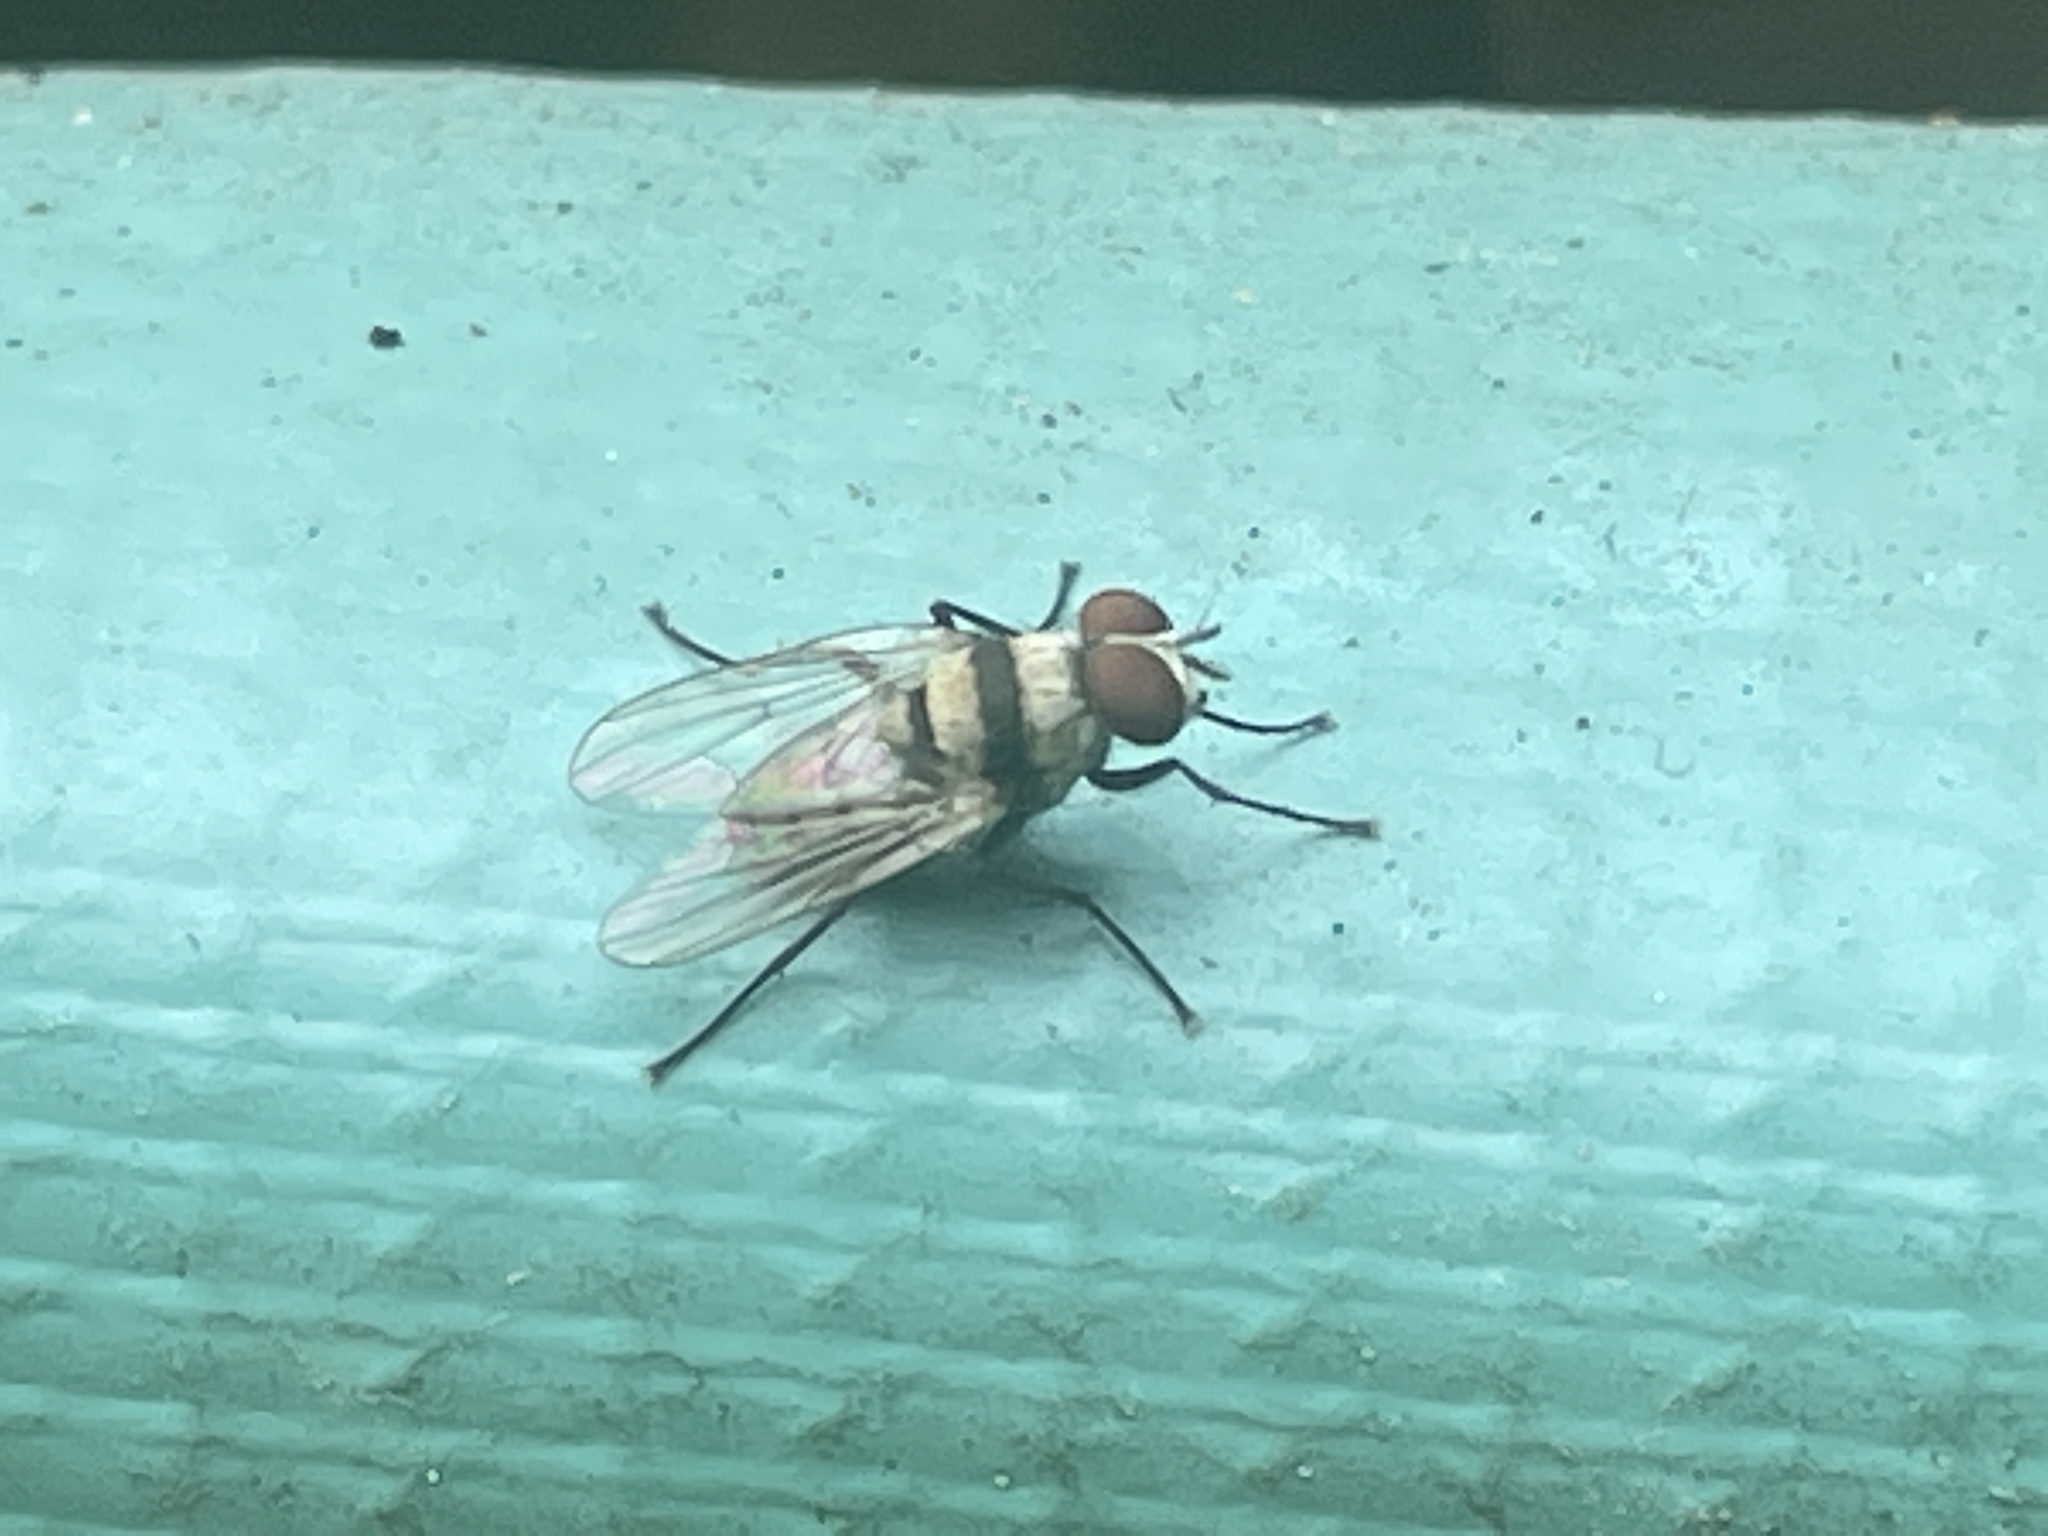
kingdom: Animalia
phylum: Arthropoda
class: Insecta
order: Diptera
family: Anthomyiidae
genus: Anthomyia
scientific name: Anthomyia illocata
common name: Fly
